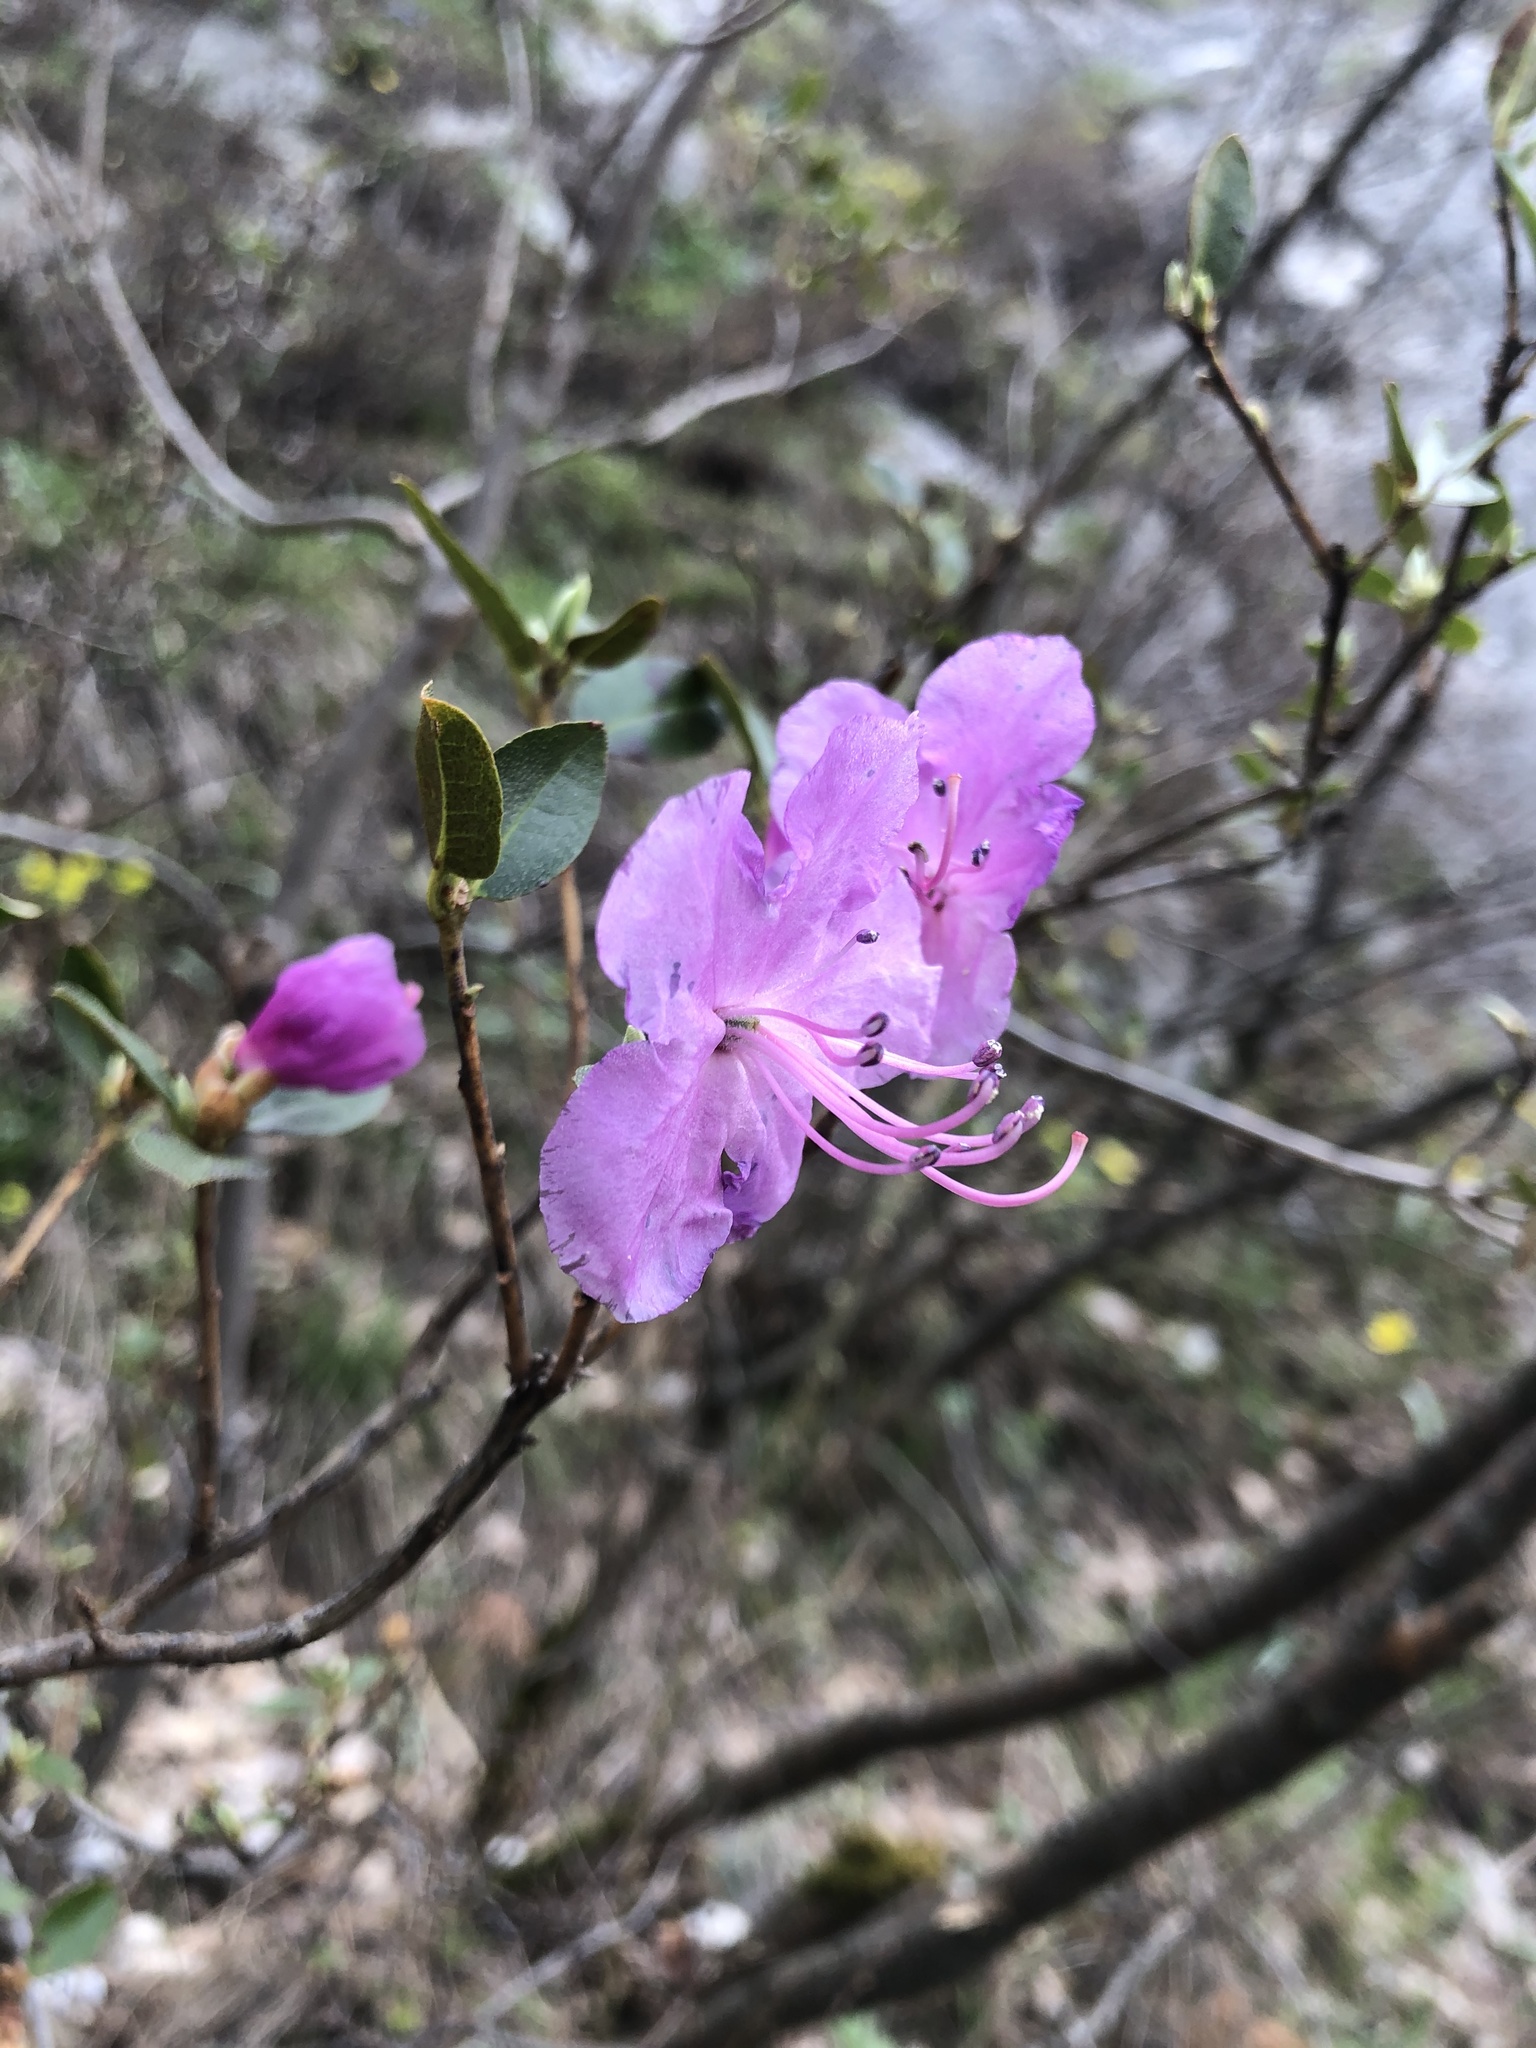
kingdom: Plantae
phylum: Tracheophyta
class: Magnoliopsida
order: Ericales
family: Ericaceae
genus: Rhododendron
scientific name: Rhododendron dauricum
